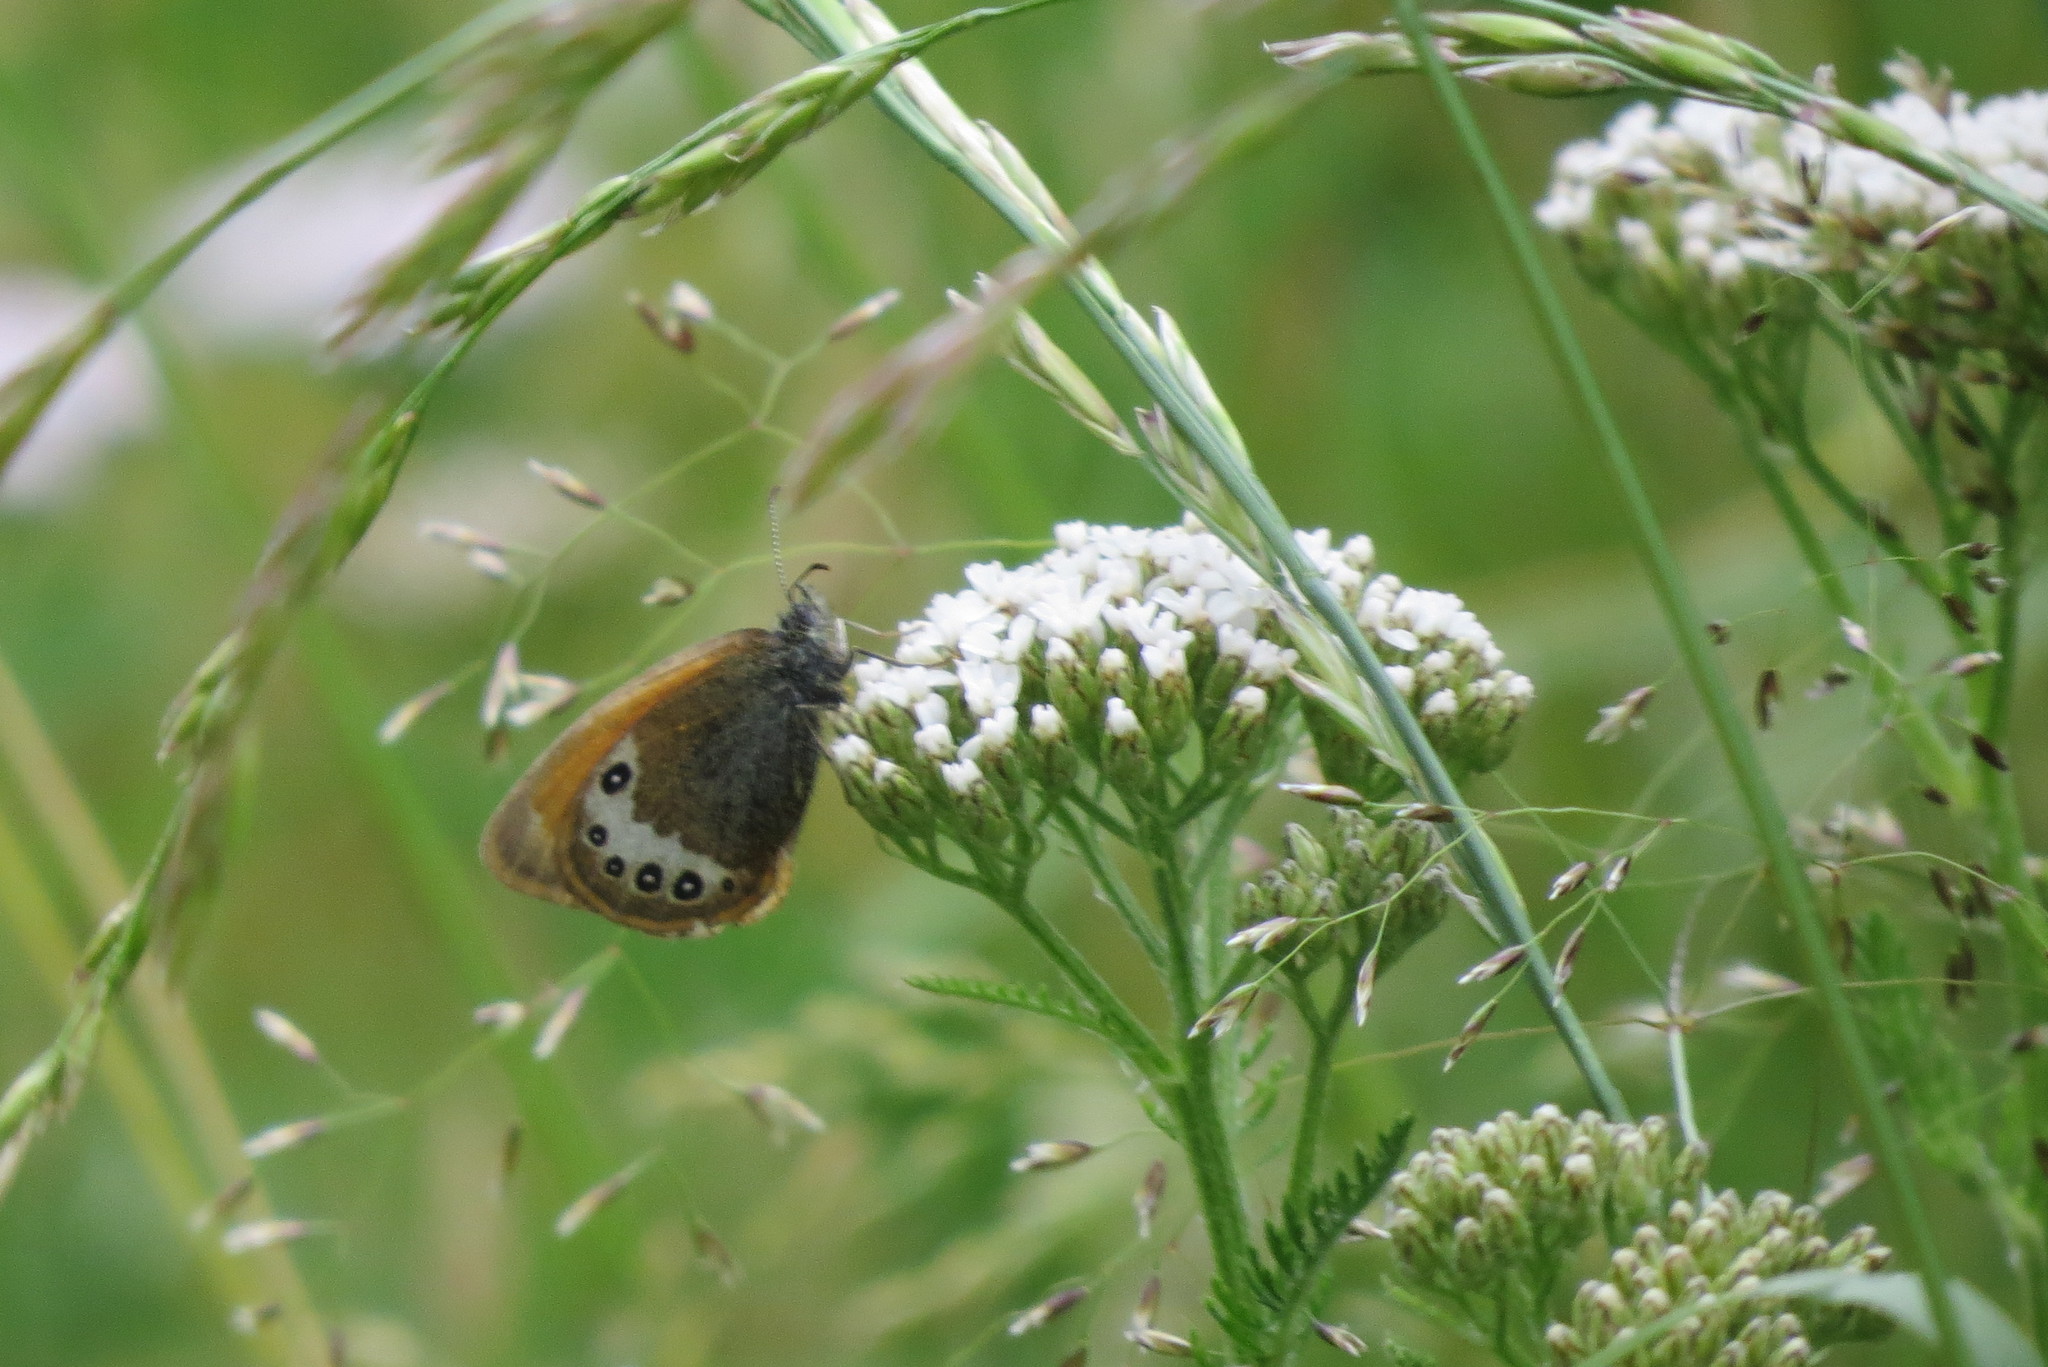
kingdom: Animalia
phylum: Arthropoda
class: Insecta
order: Lepidoptera
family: Nymphalidae
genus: Coenonympha
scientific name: Coenonympha
